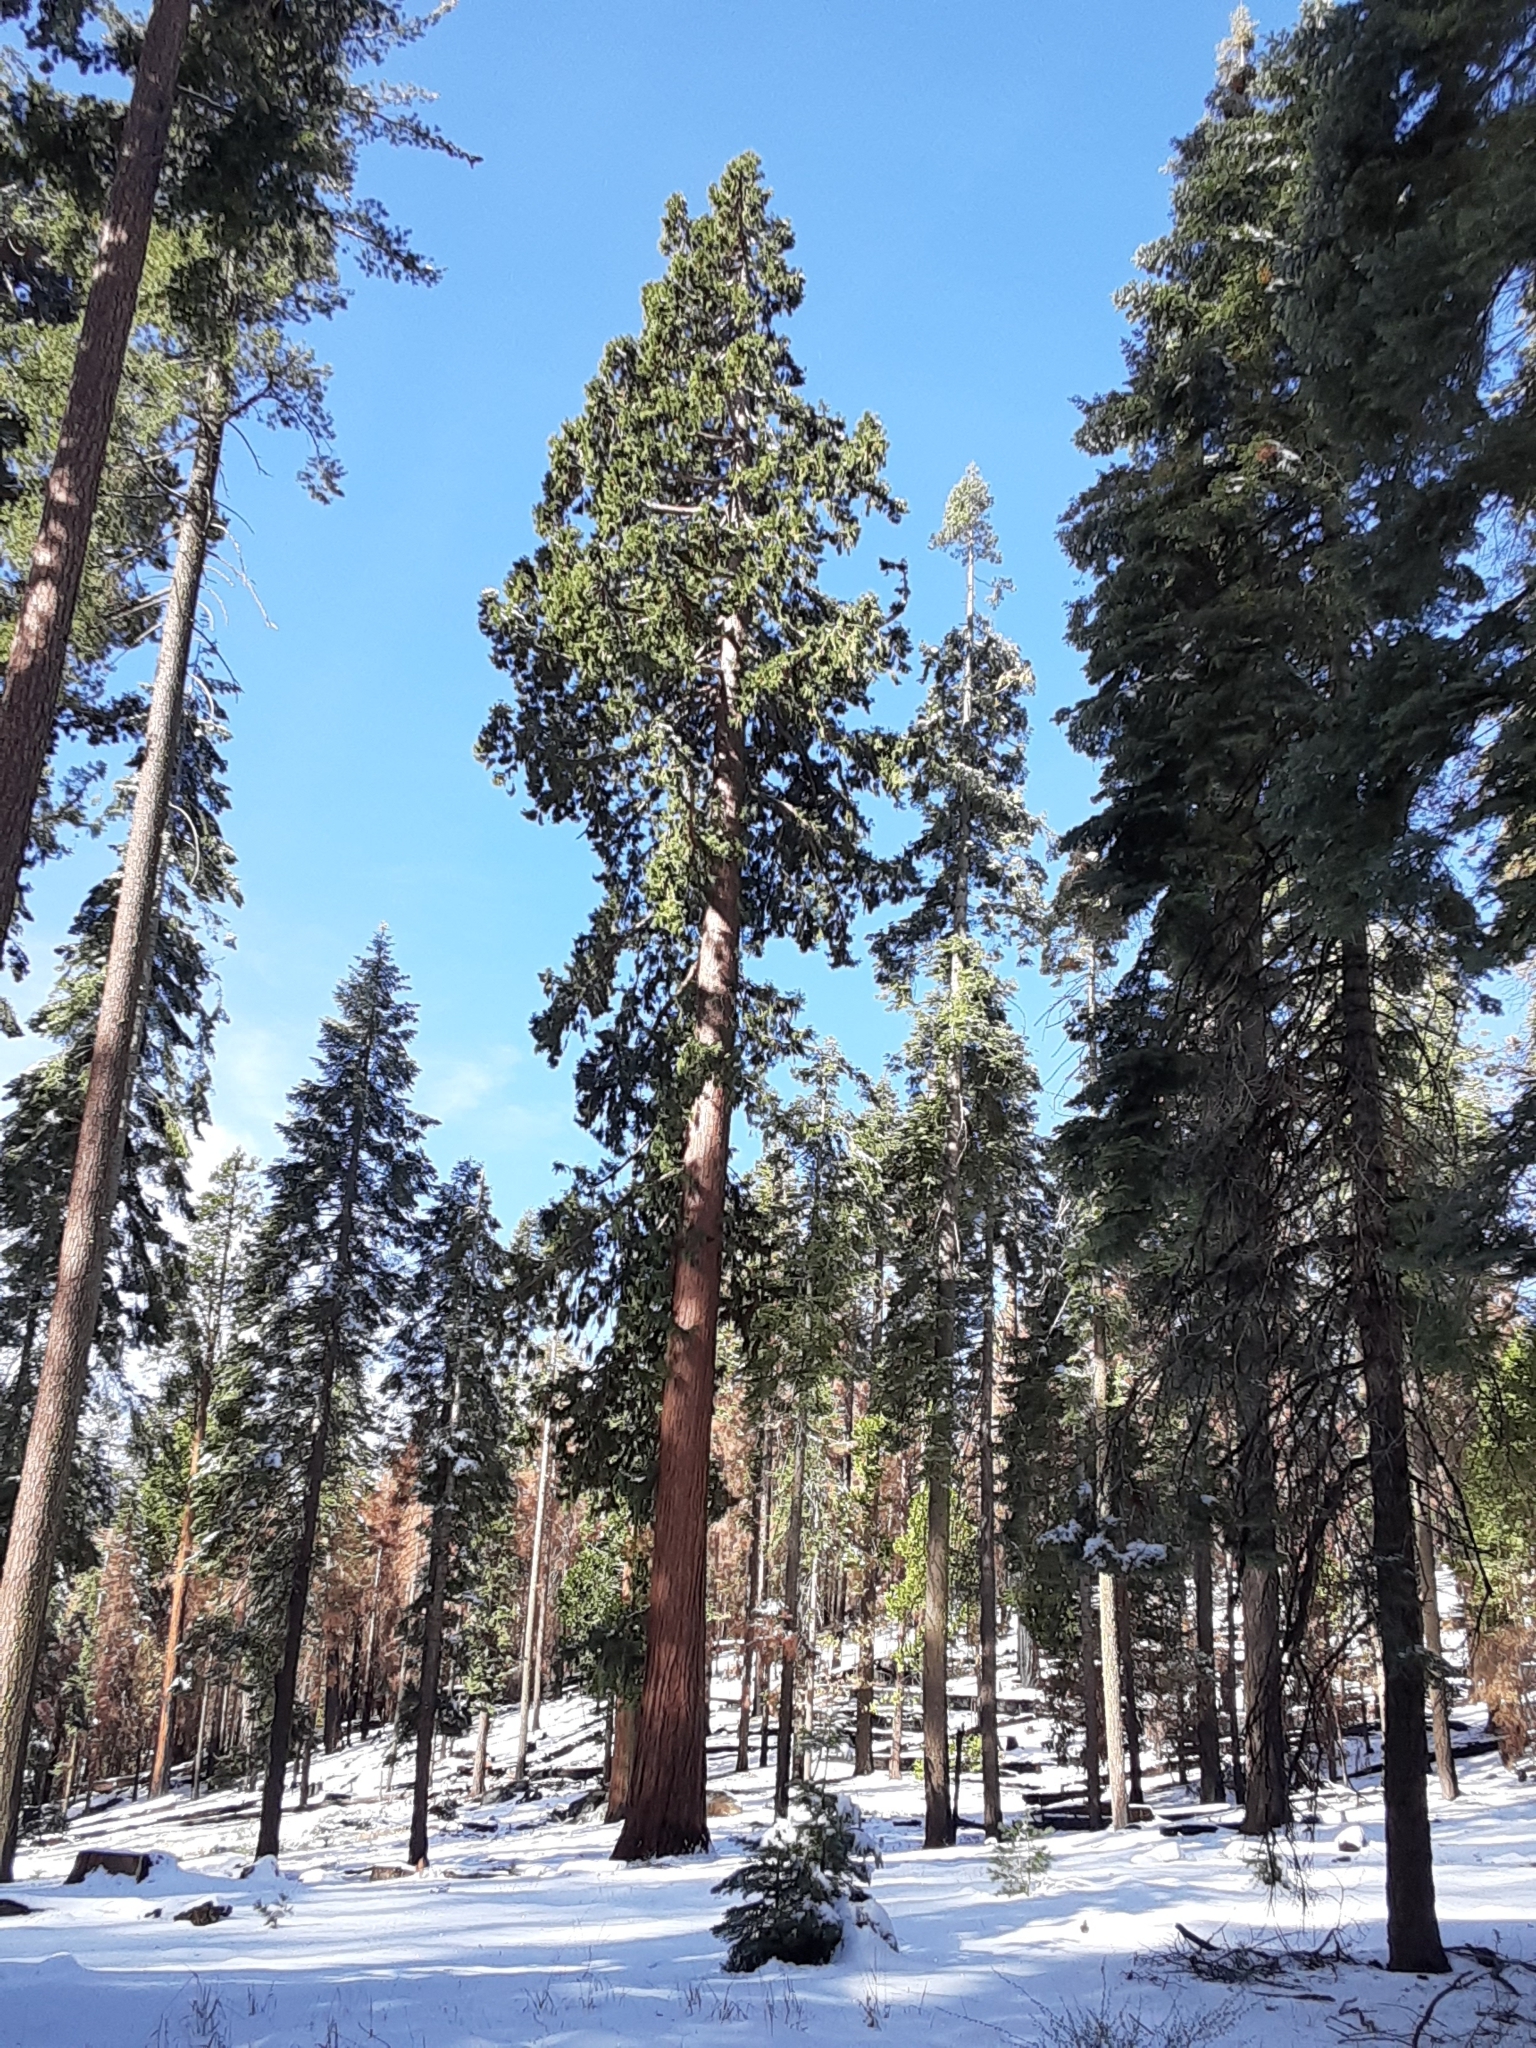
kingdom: Plantae
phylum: Tracheophyta
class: Pinopsida
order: Pinales
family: Cupressaceae
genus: Sequoiadendron
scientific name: Sequoiadendron giganteum
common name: Wellingtonia
